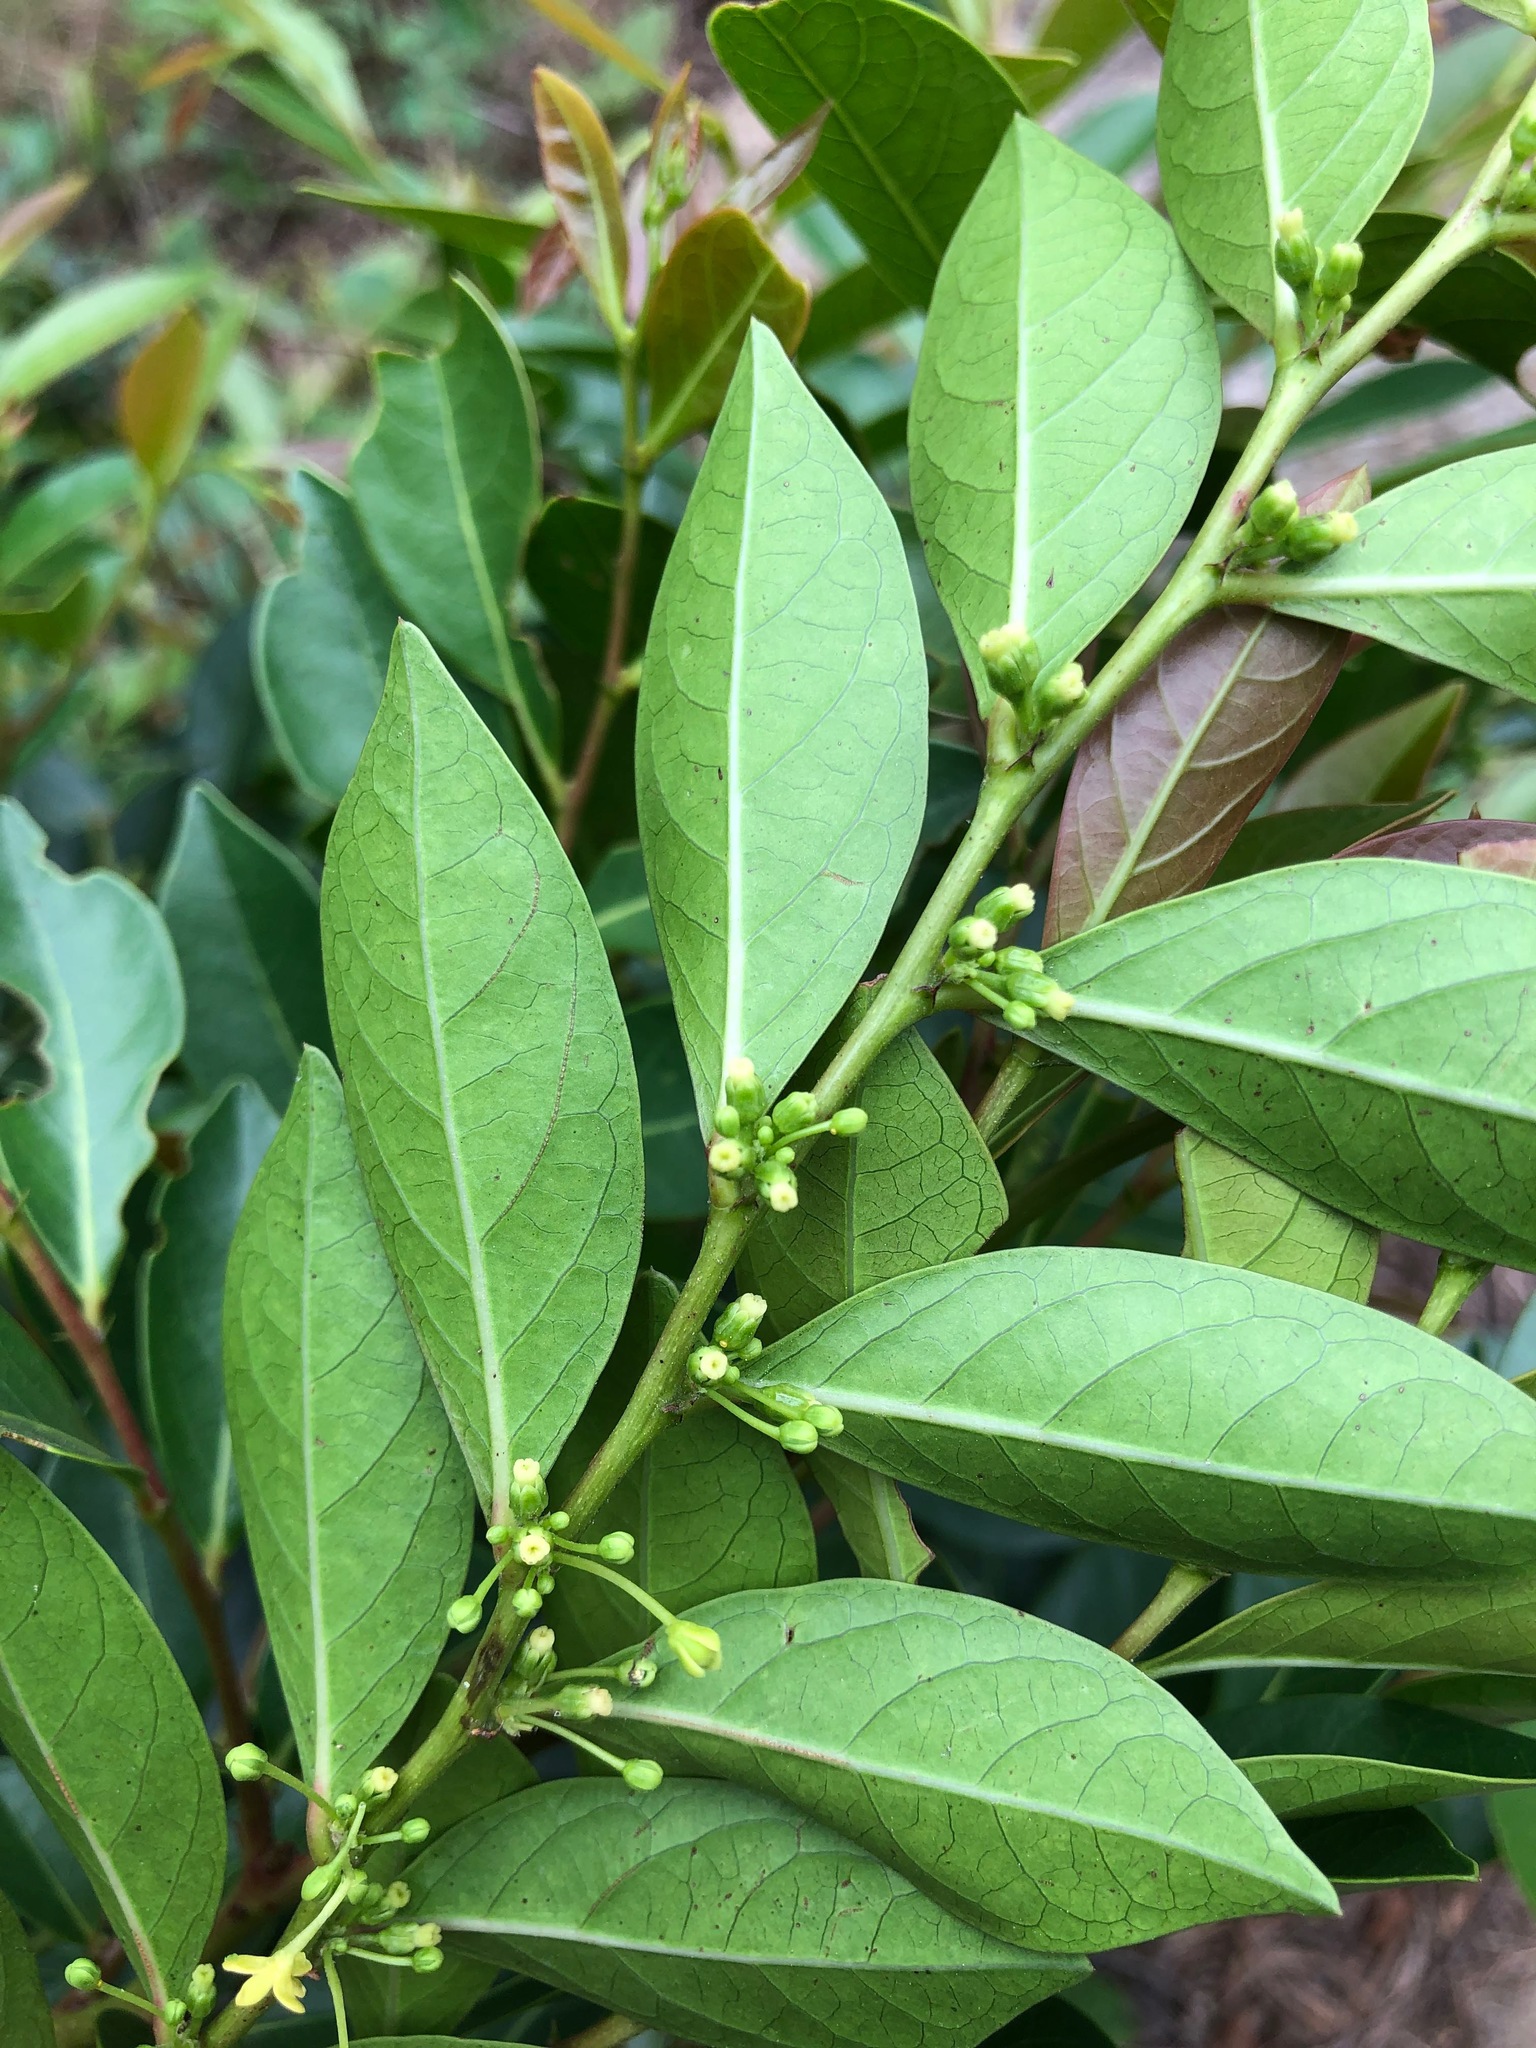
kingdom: Plantae
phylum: Tracheophyta
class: Magnoliopsida
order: Malpighiales
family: Phyllanthaceae
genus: Glochidion
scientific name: Glochidion rubrum
